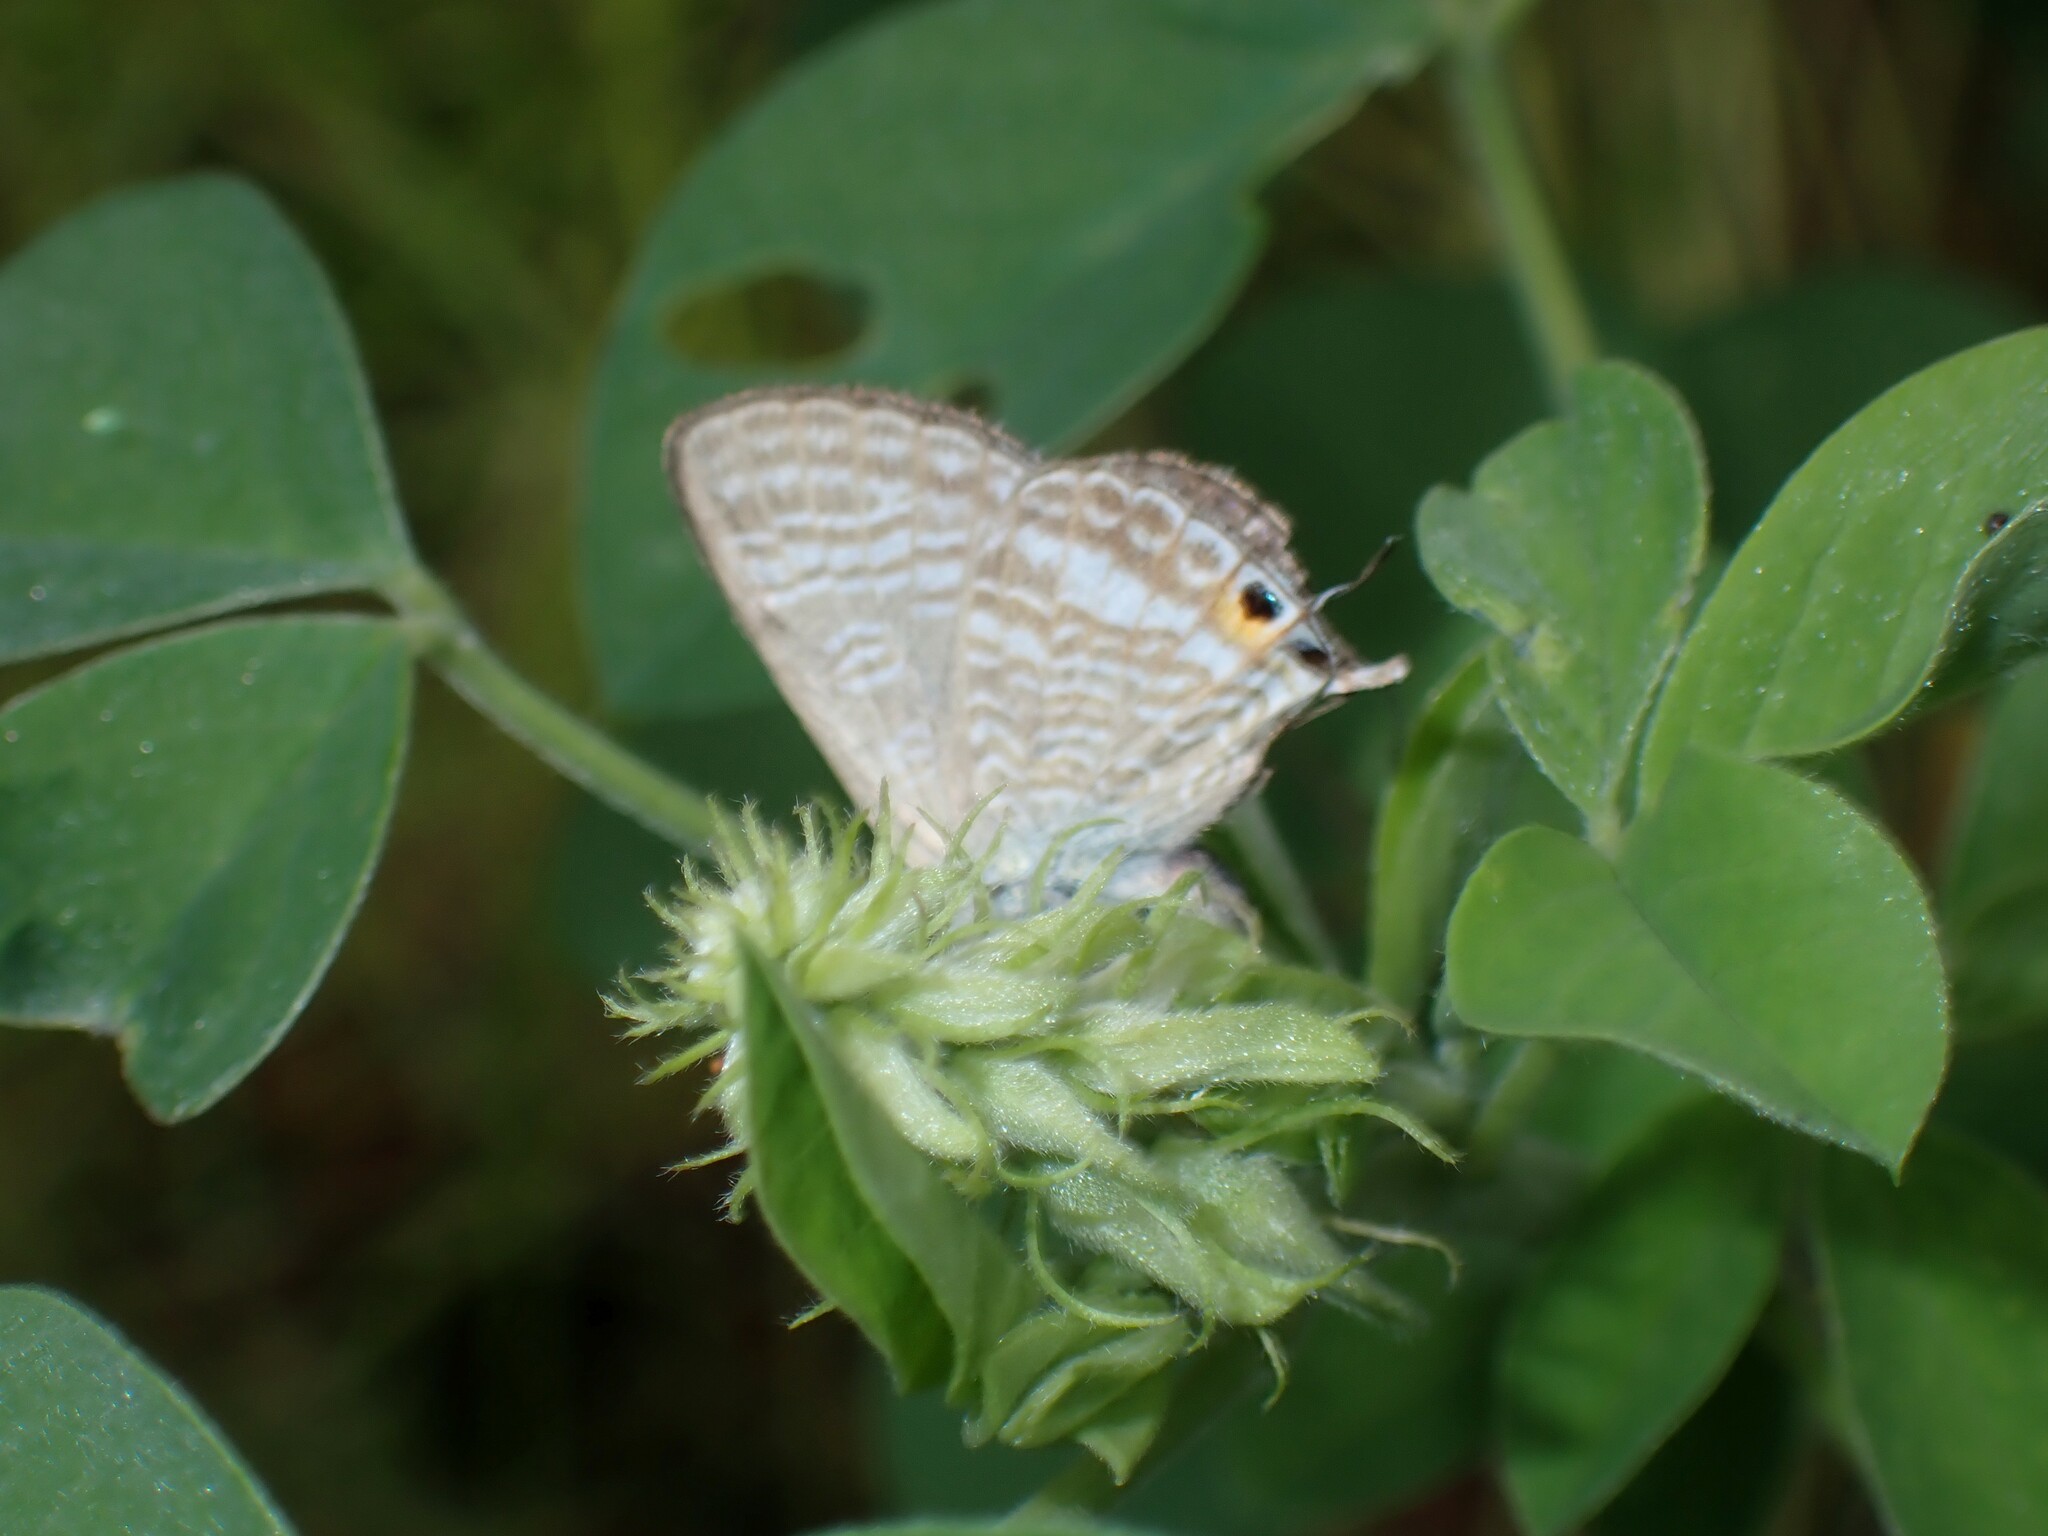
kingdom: Animalia
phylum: Arthropoda
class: Insecta
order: Lepidoptera
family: Lycaenidae
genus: Lampides
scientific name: Lampides boeticus
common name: Long-tailed blue
